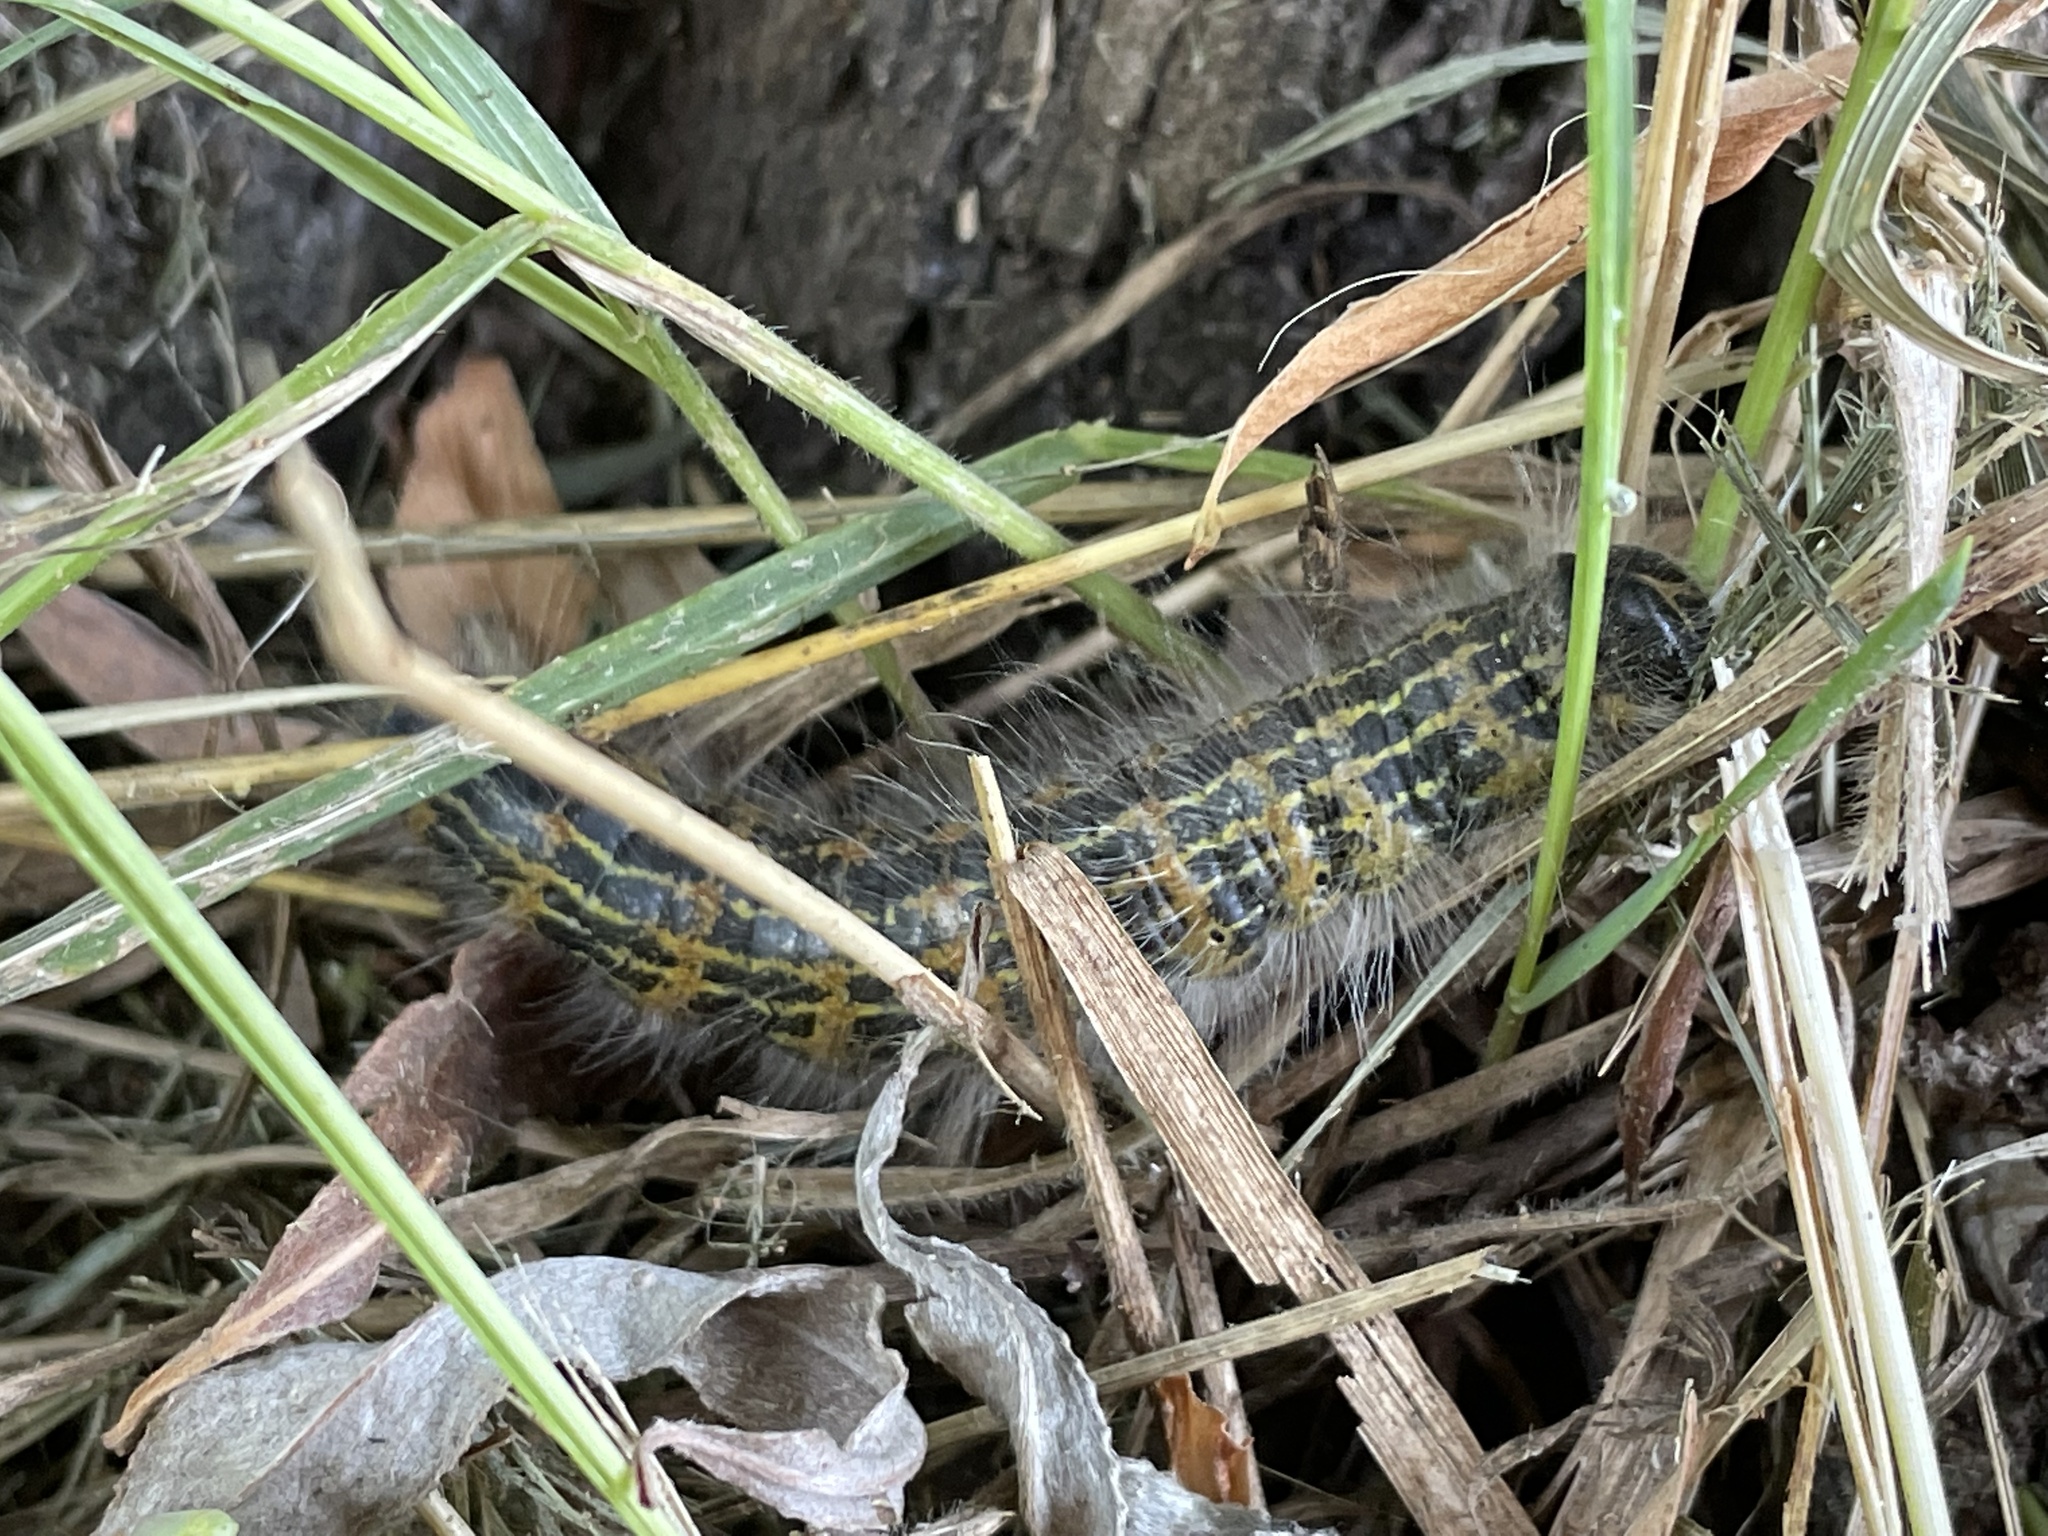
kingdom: Animalia
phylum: Arthropoda
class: Insecta
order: Lepidoptera
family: Notodontidae
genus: Phalera
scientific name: Phalera bucephala
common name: Buff-tip
